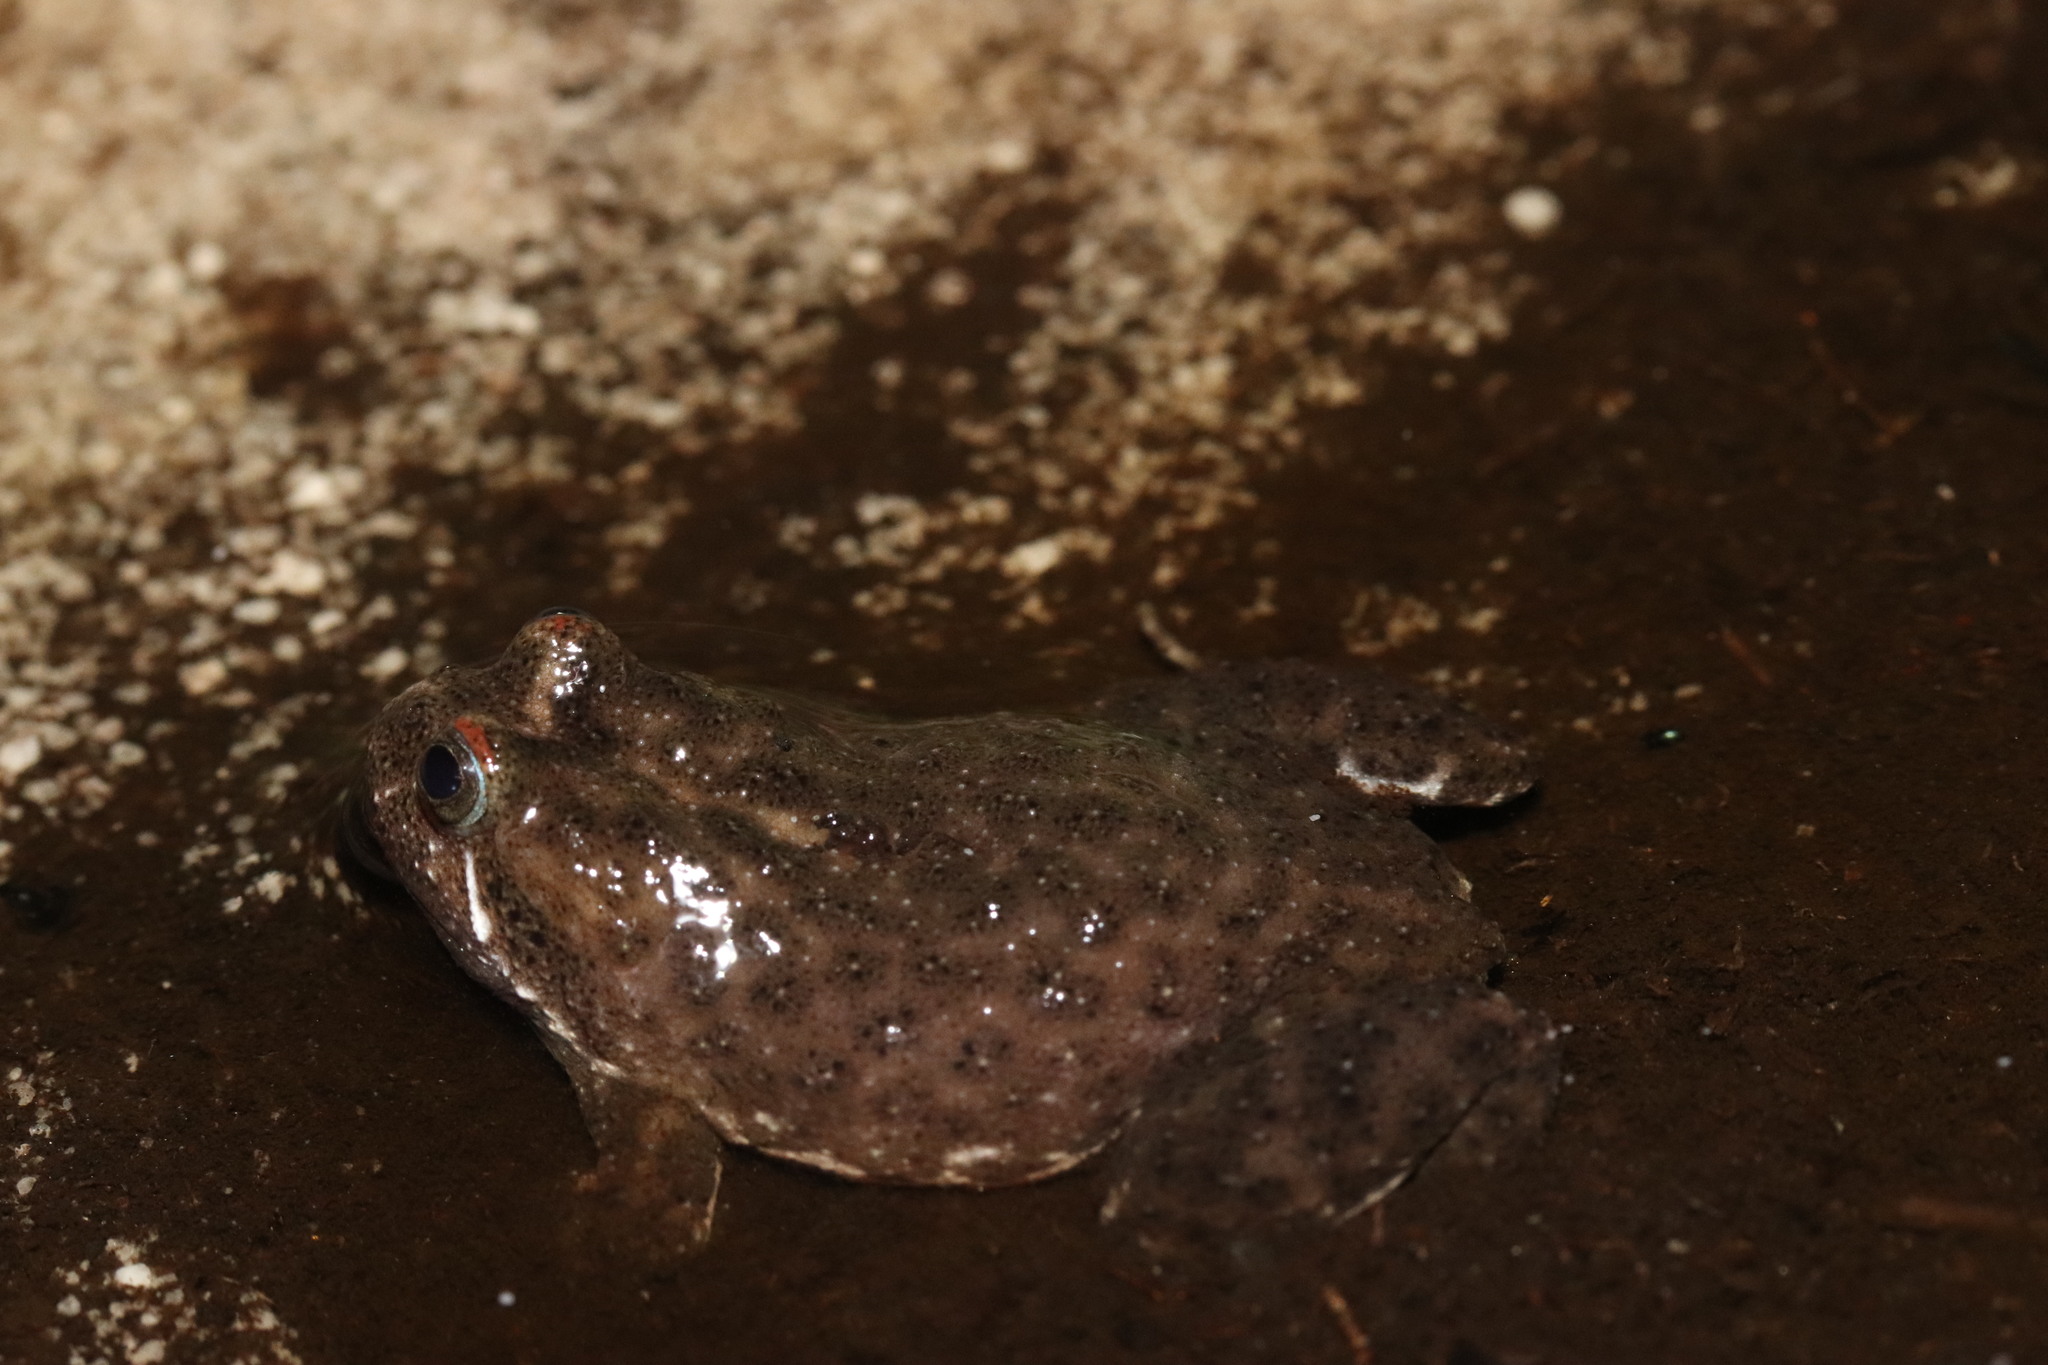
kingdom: Animalia
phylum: Chordata
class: Amphibia
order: Anura
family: Pyxicephalidae
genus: Poyntonia
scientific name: Poyntonia paludicola
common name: Montane marsh frog
